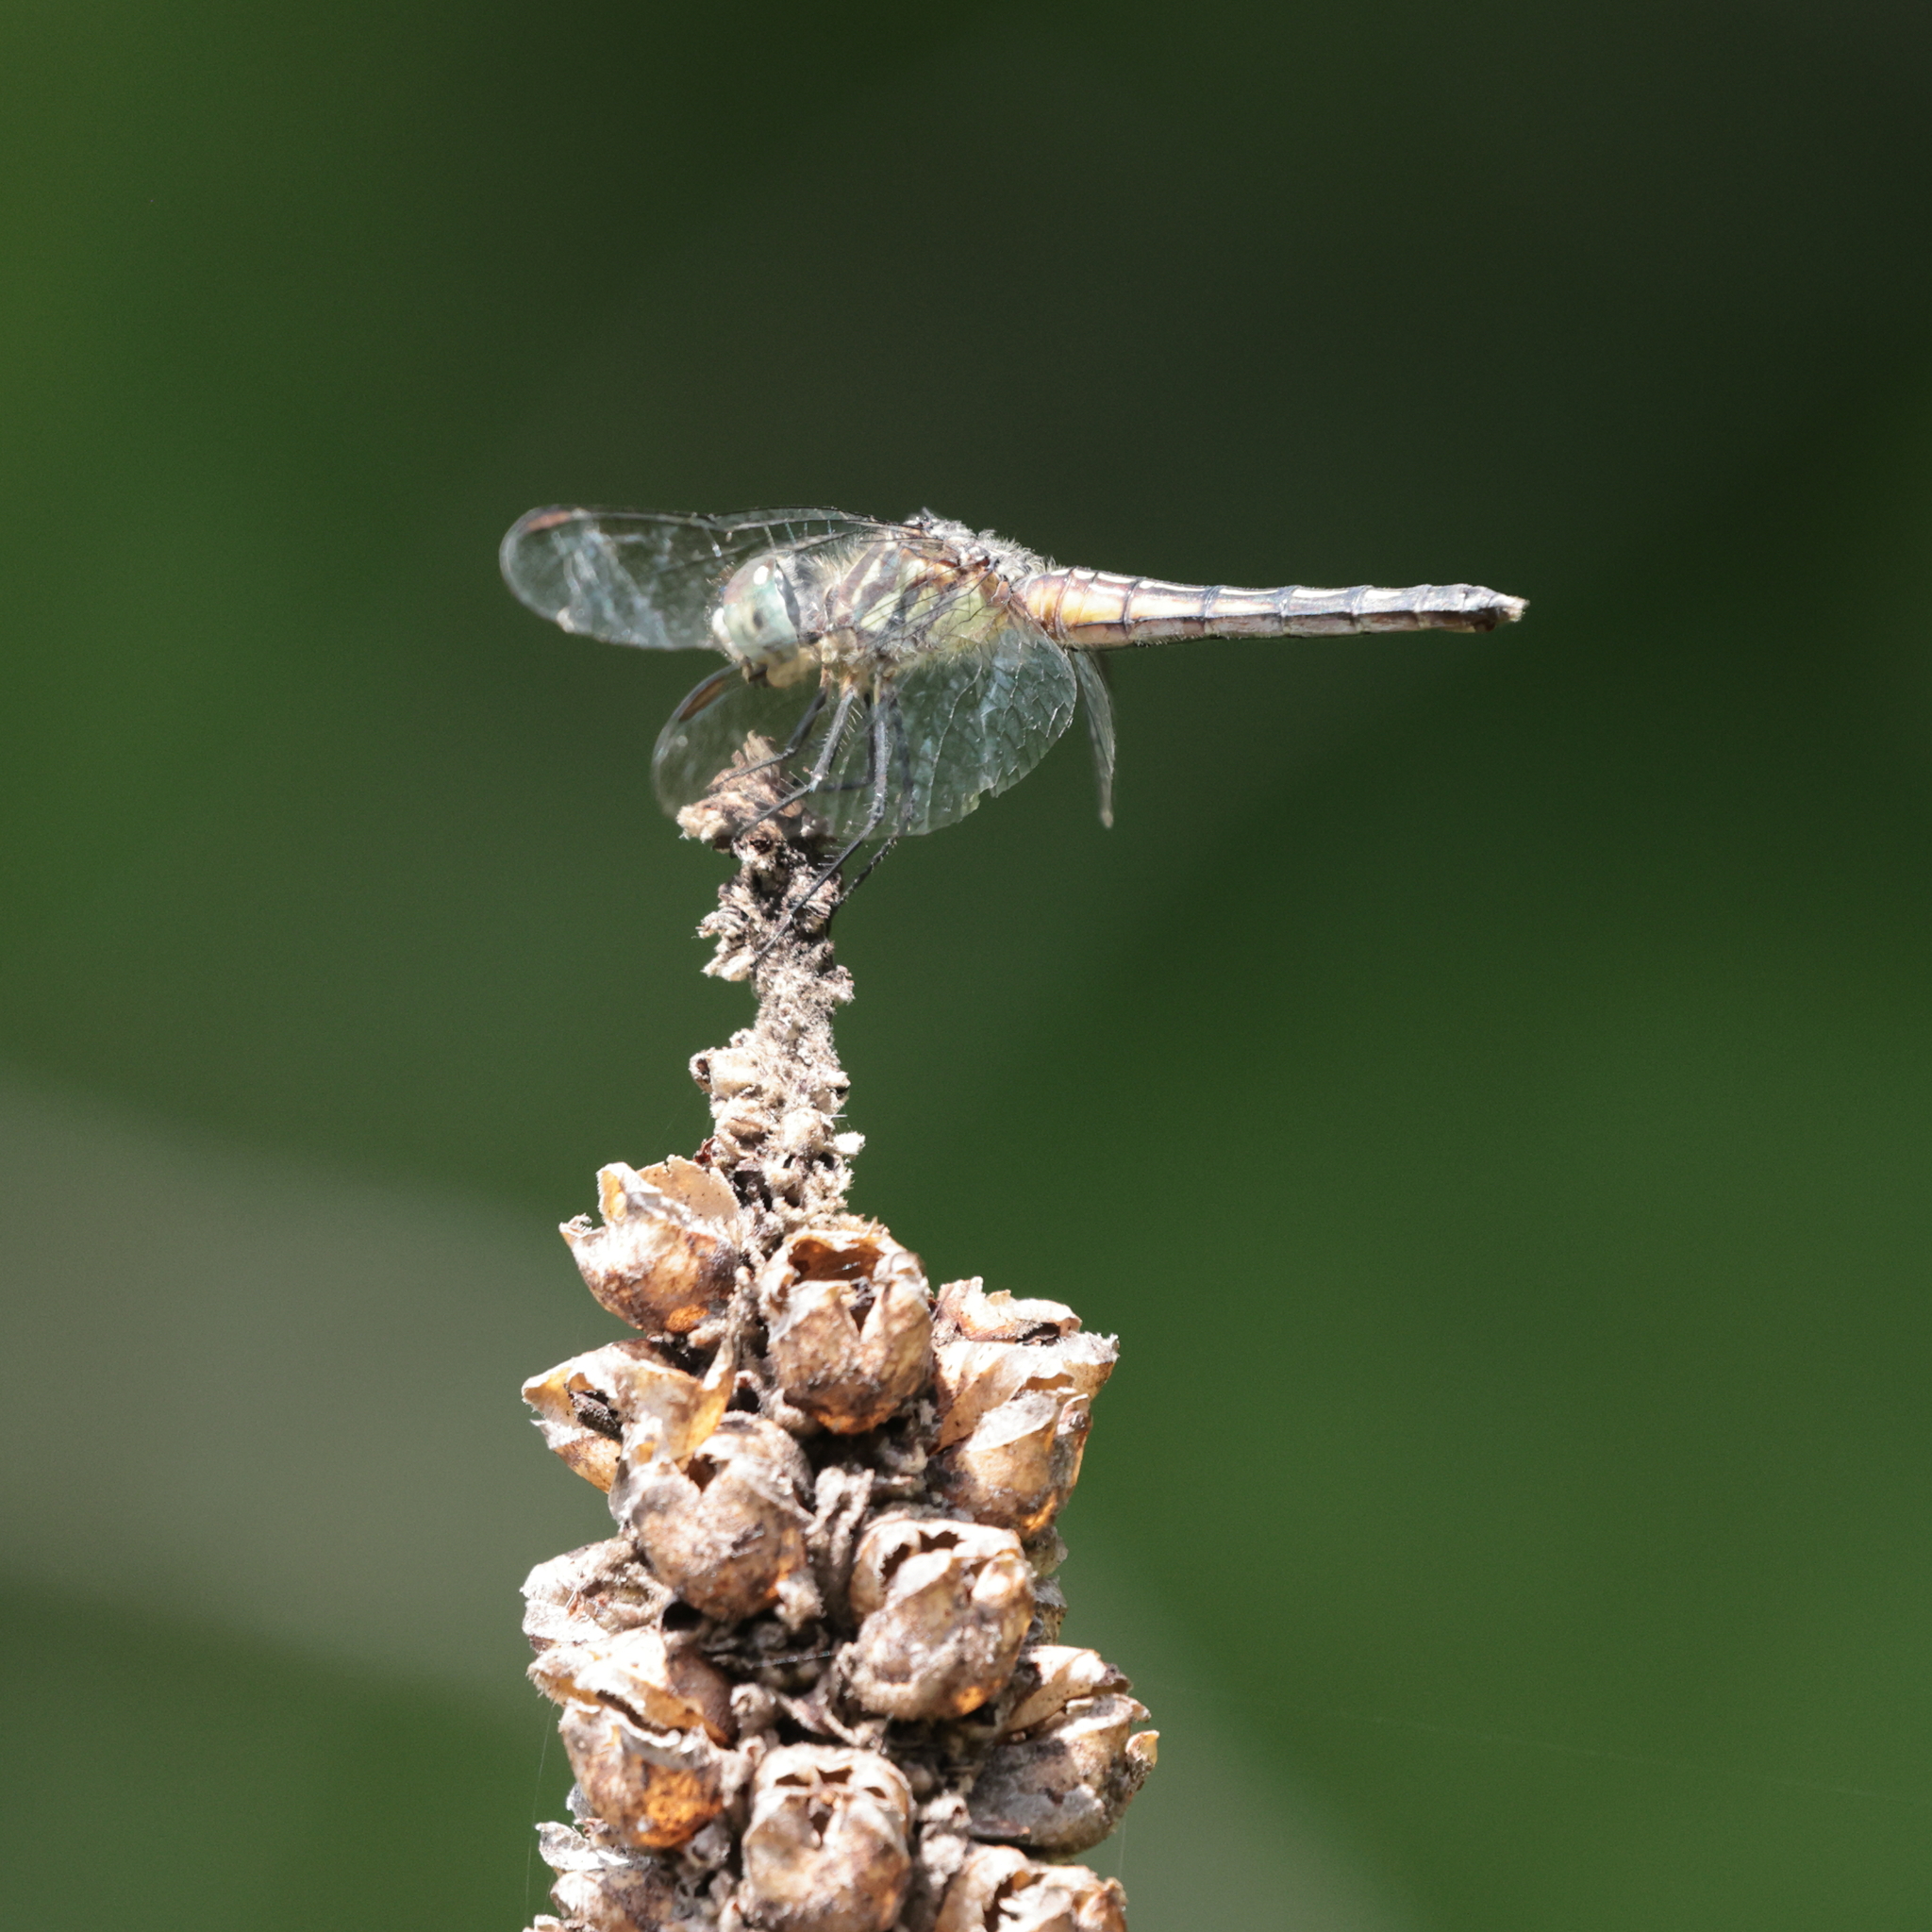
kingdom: Animalia
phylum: Arthropoda
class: Insecta
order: Odonata
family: Libellulidae
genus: Pachydiplax
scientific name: Pachydiplax longipennis
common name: Blue dasher
